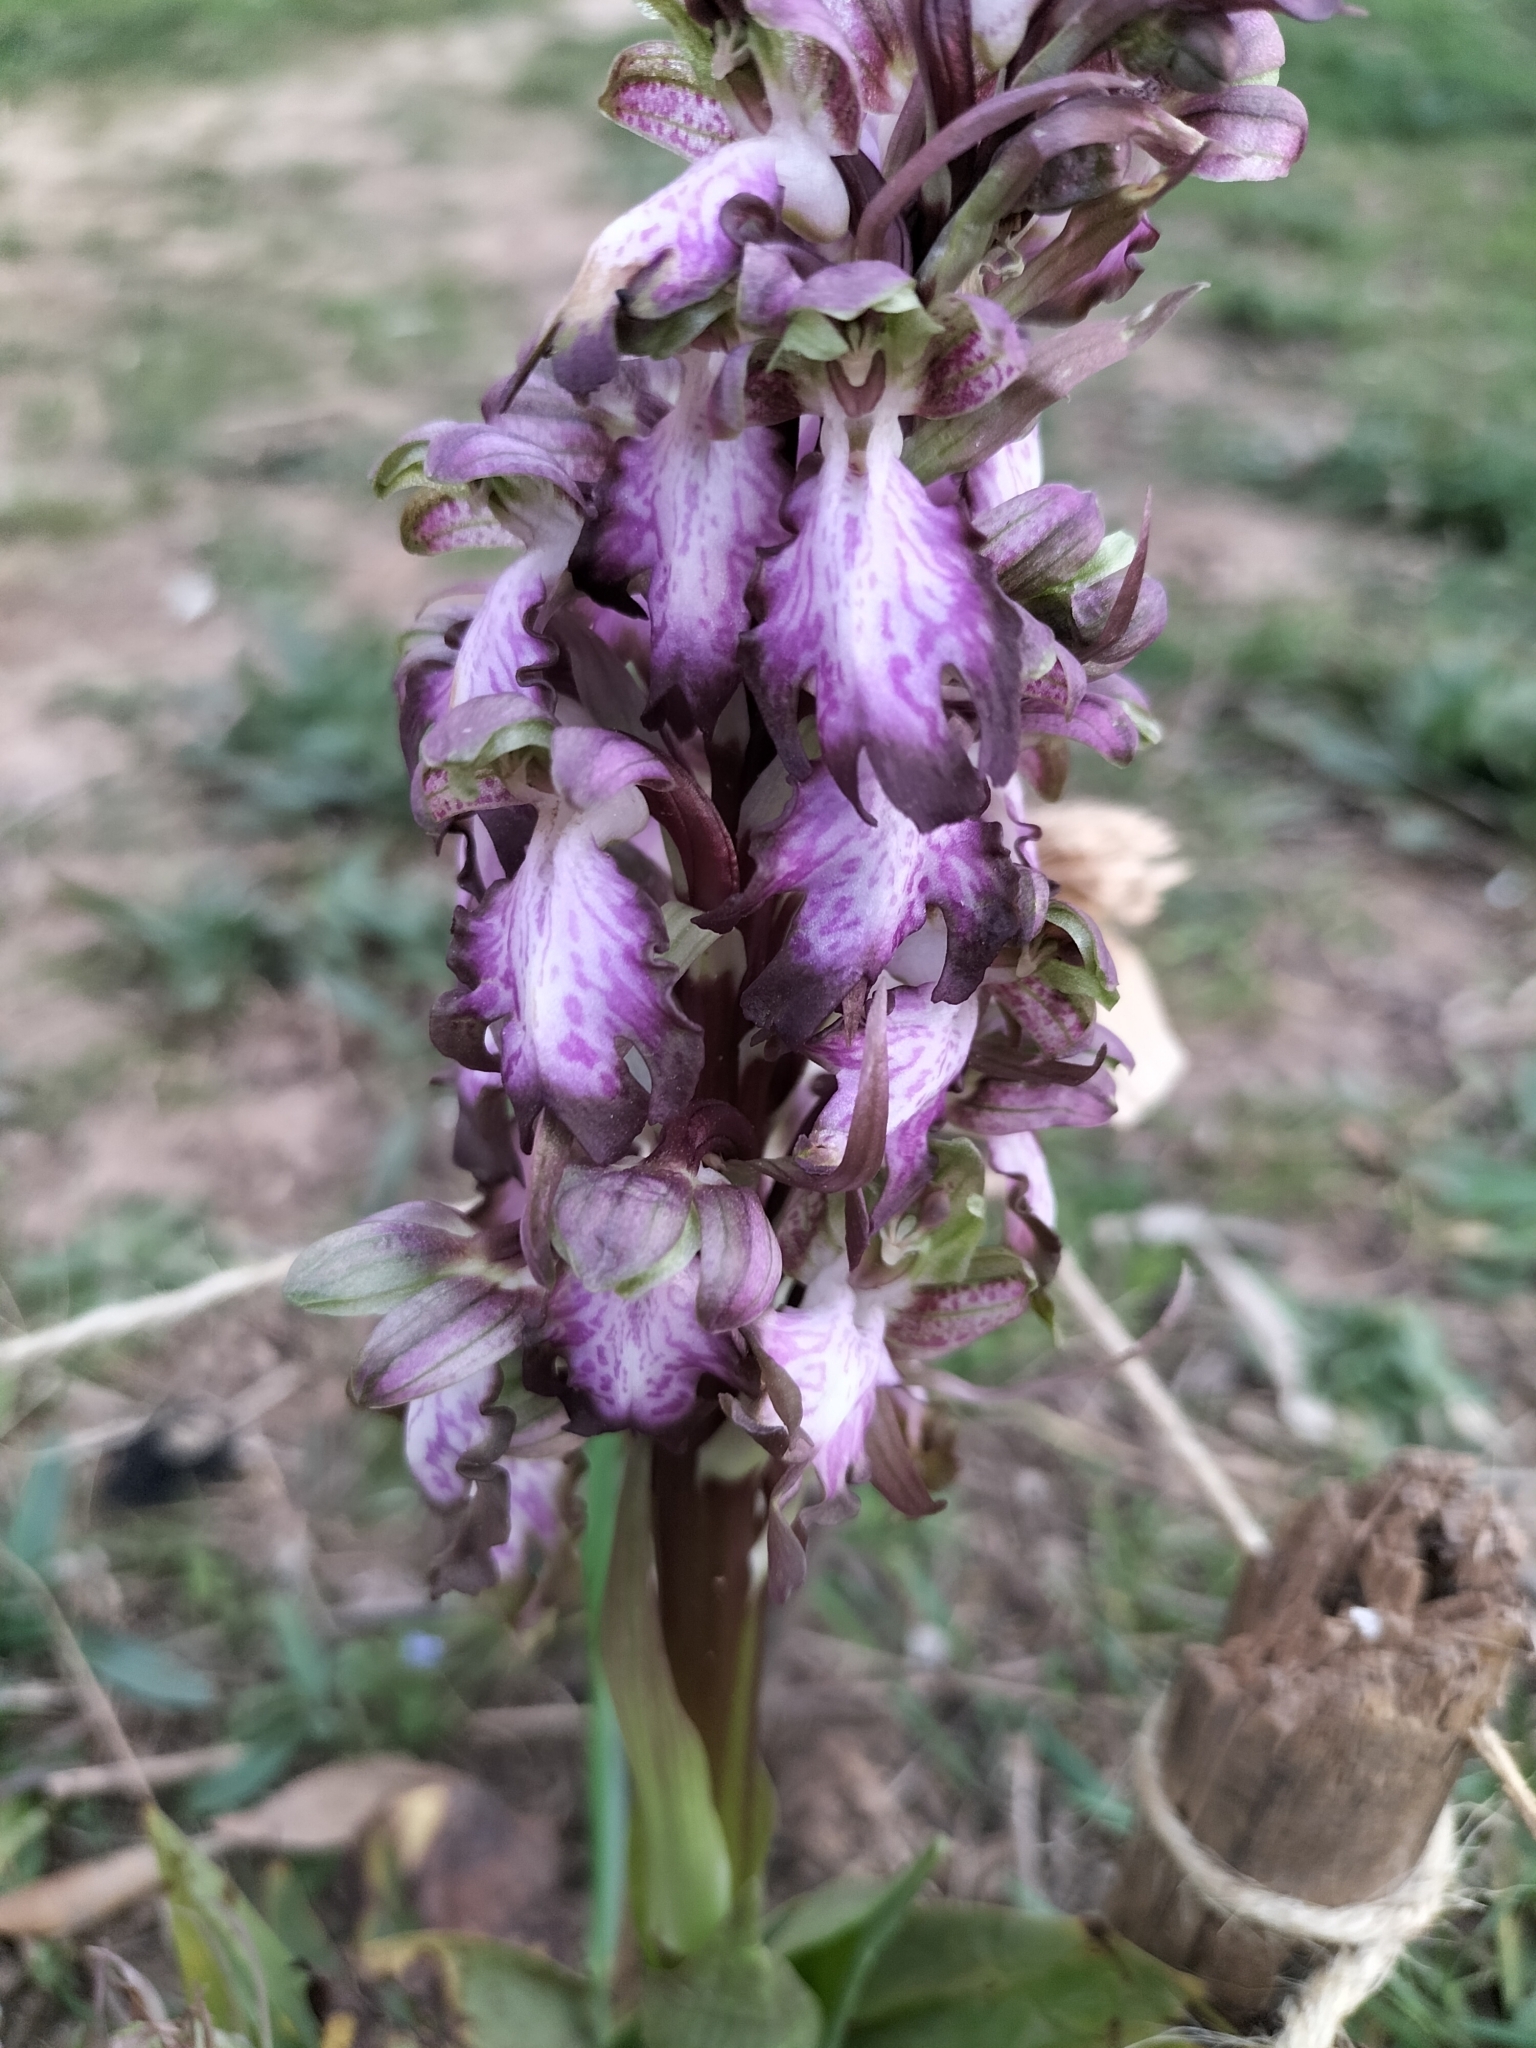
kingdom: Plantae
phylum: Tracheophyta
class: Liliopsida
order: Asparagales
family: Orchidaceae
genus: Himantoglossum
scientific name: Himantoglossum robertianum
